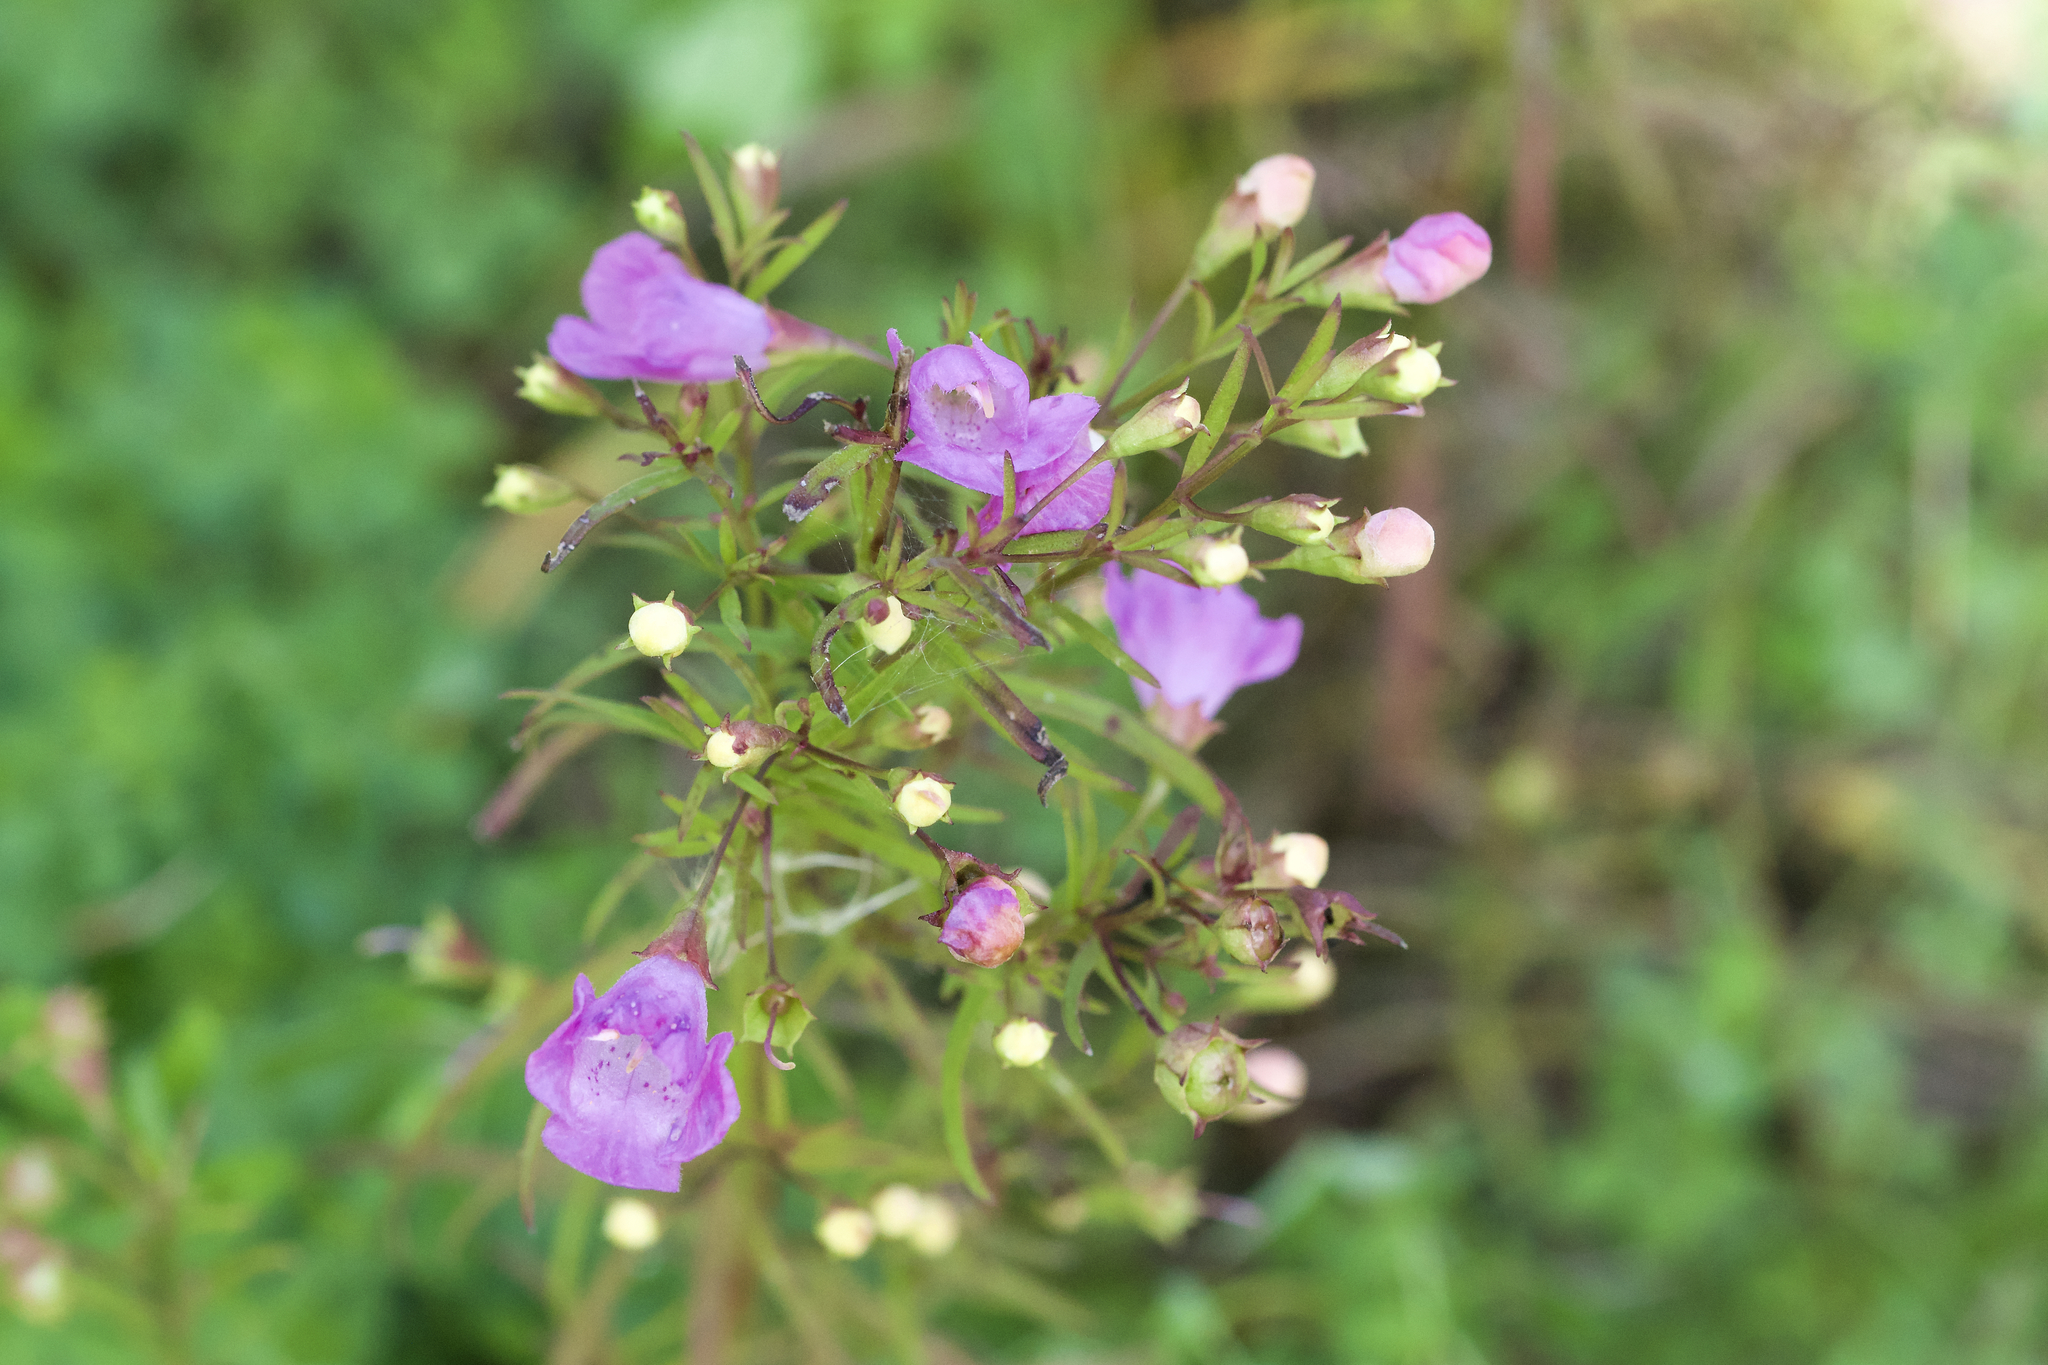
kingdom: Plantae
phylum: Tracheophyta
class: Magnoliopsida
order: Lamiales
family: Orobanchaceae
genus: Agalinis
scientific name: Agalinis tenuifolia
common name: Slender agalinis
